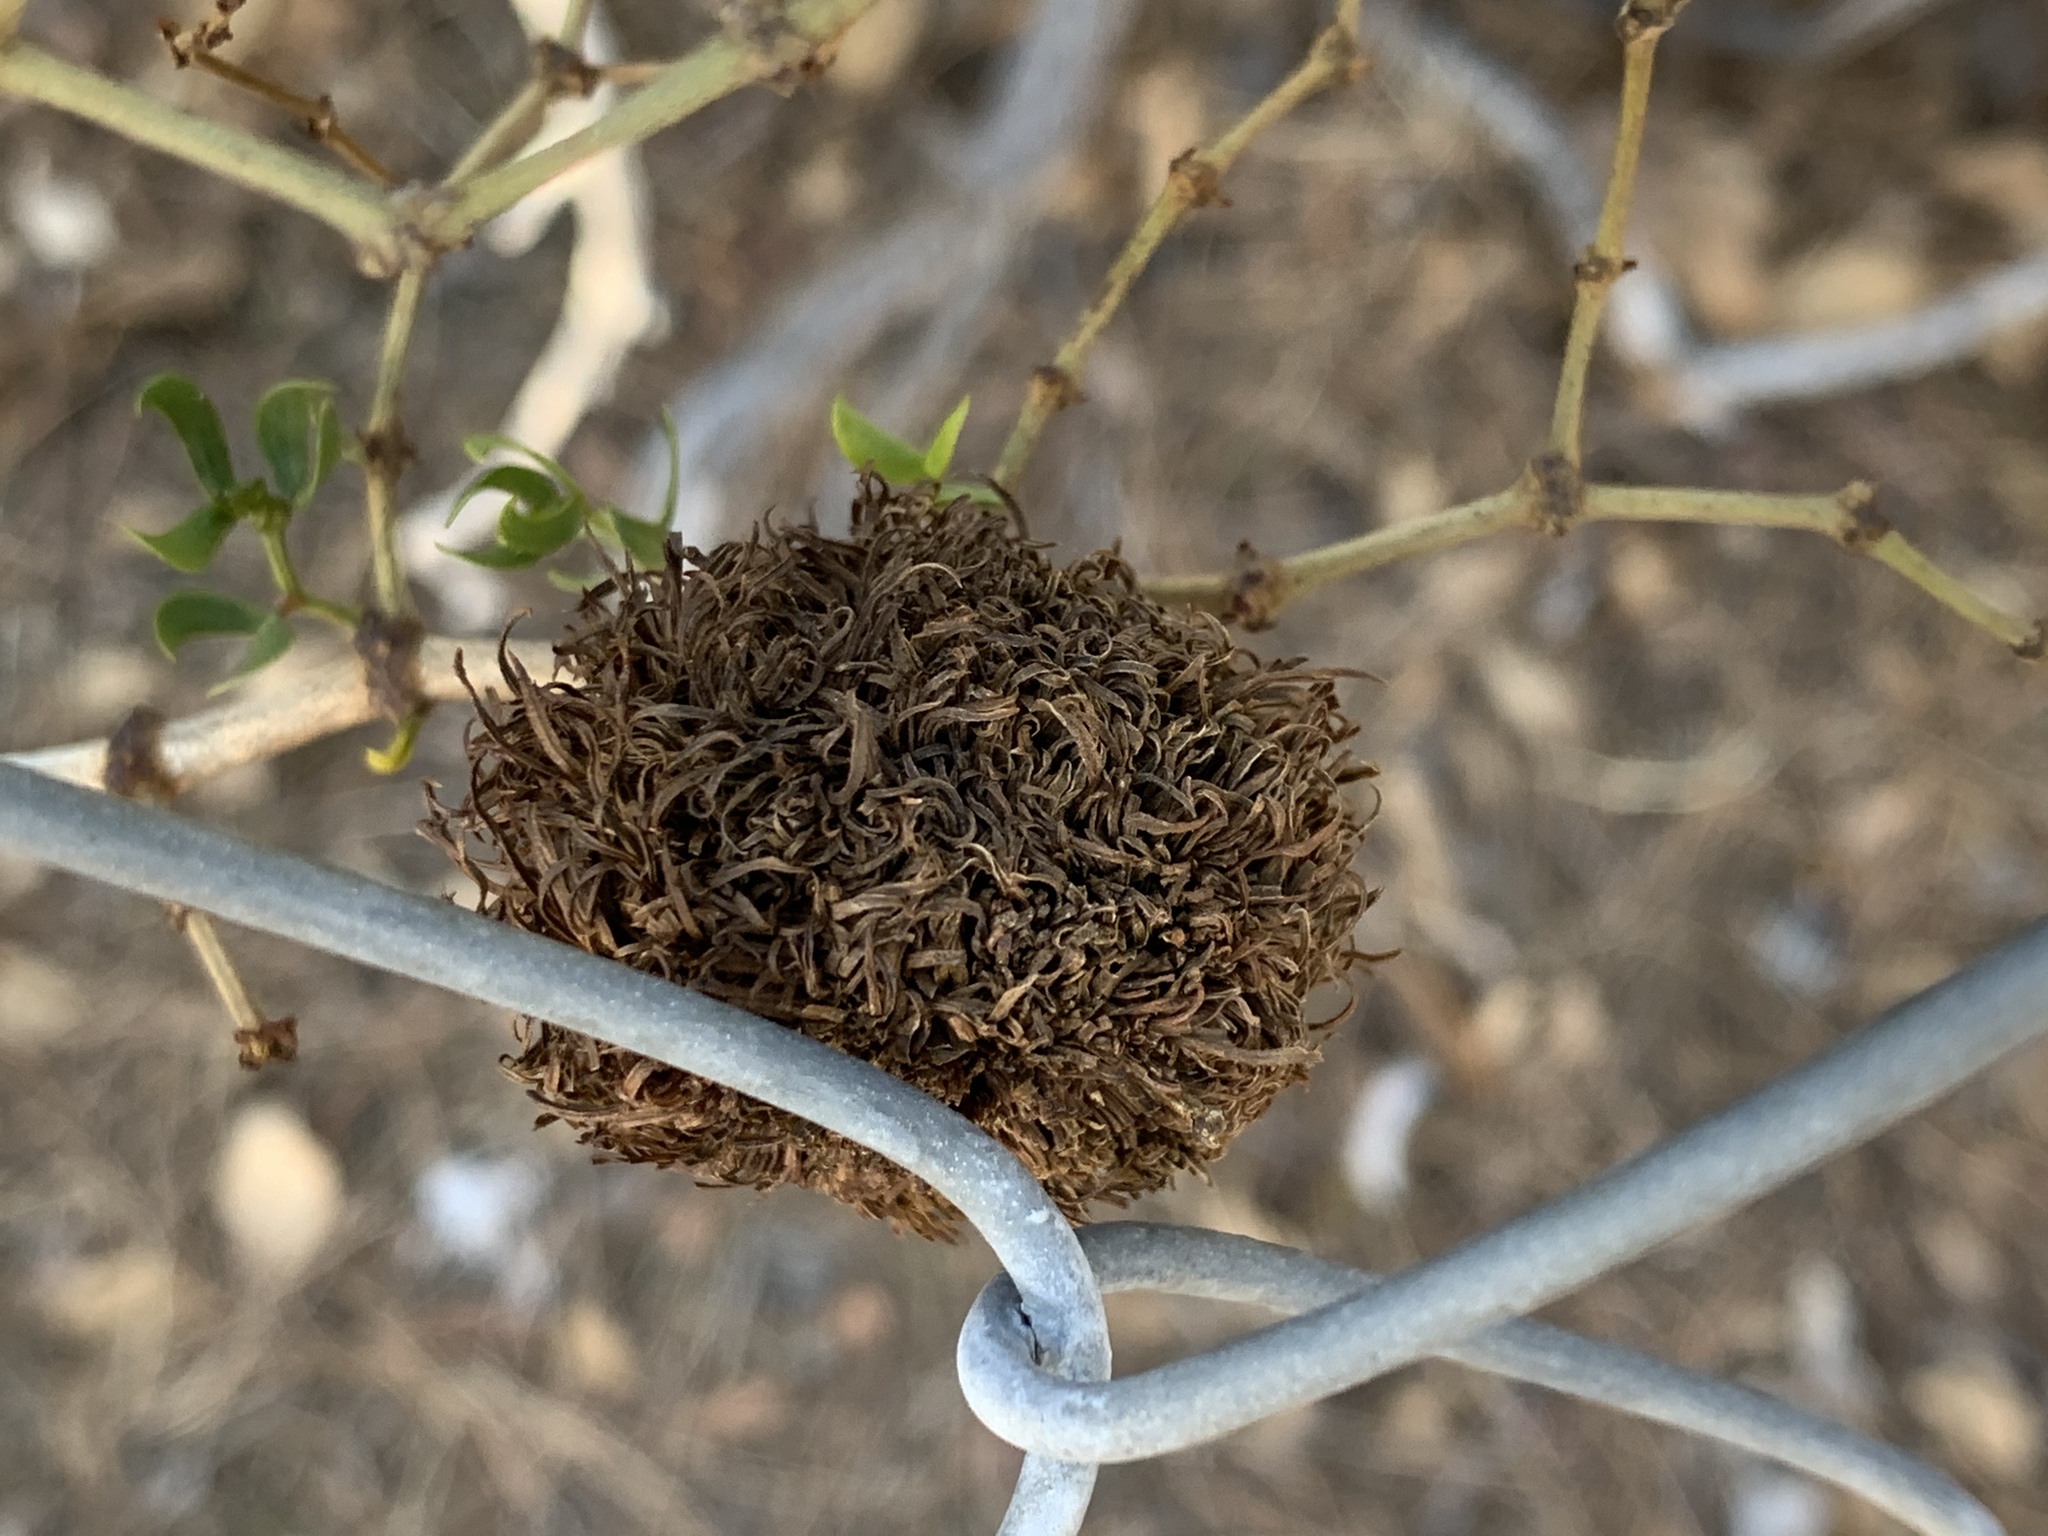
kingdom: Animalia
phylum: Arthropoda
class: Insecta
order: Diptera
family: Cecidomyiidae
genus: Asphondylia
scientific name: Asphondylia auripila
